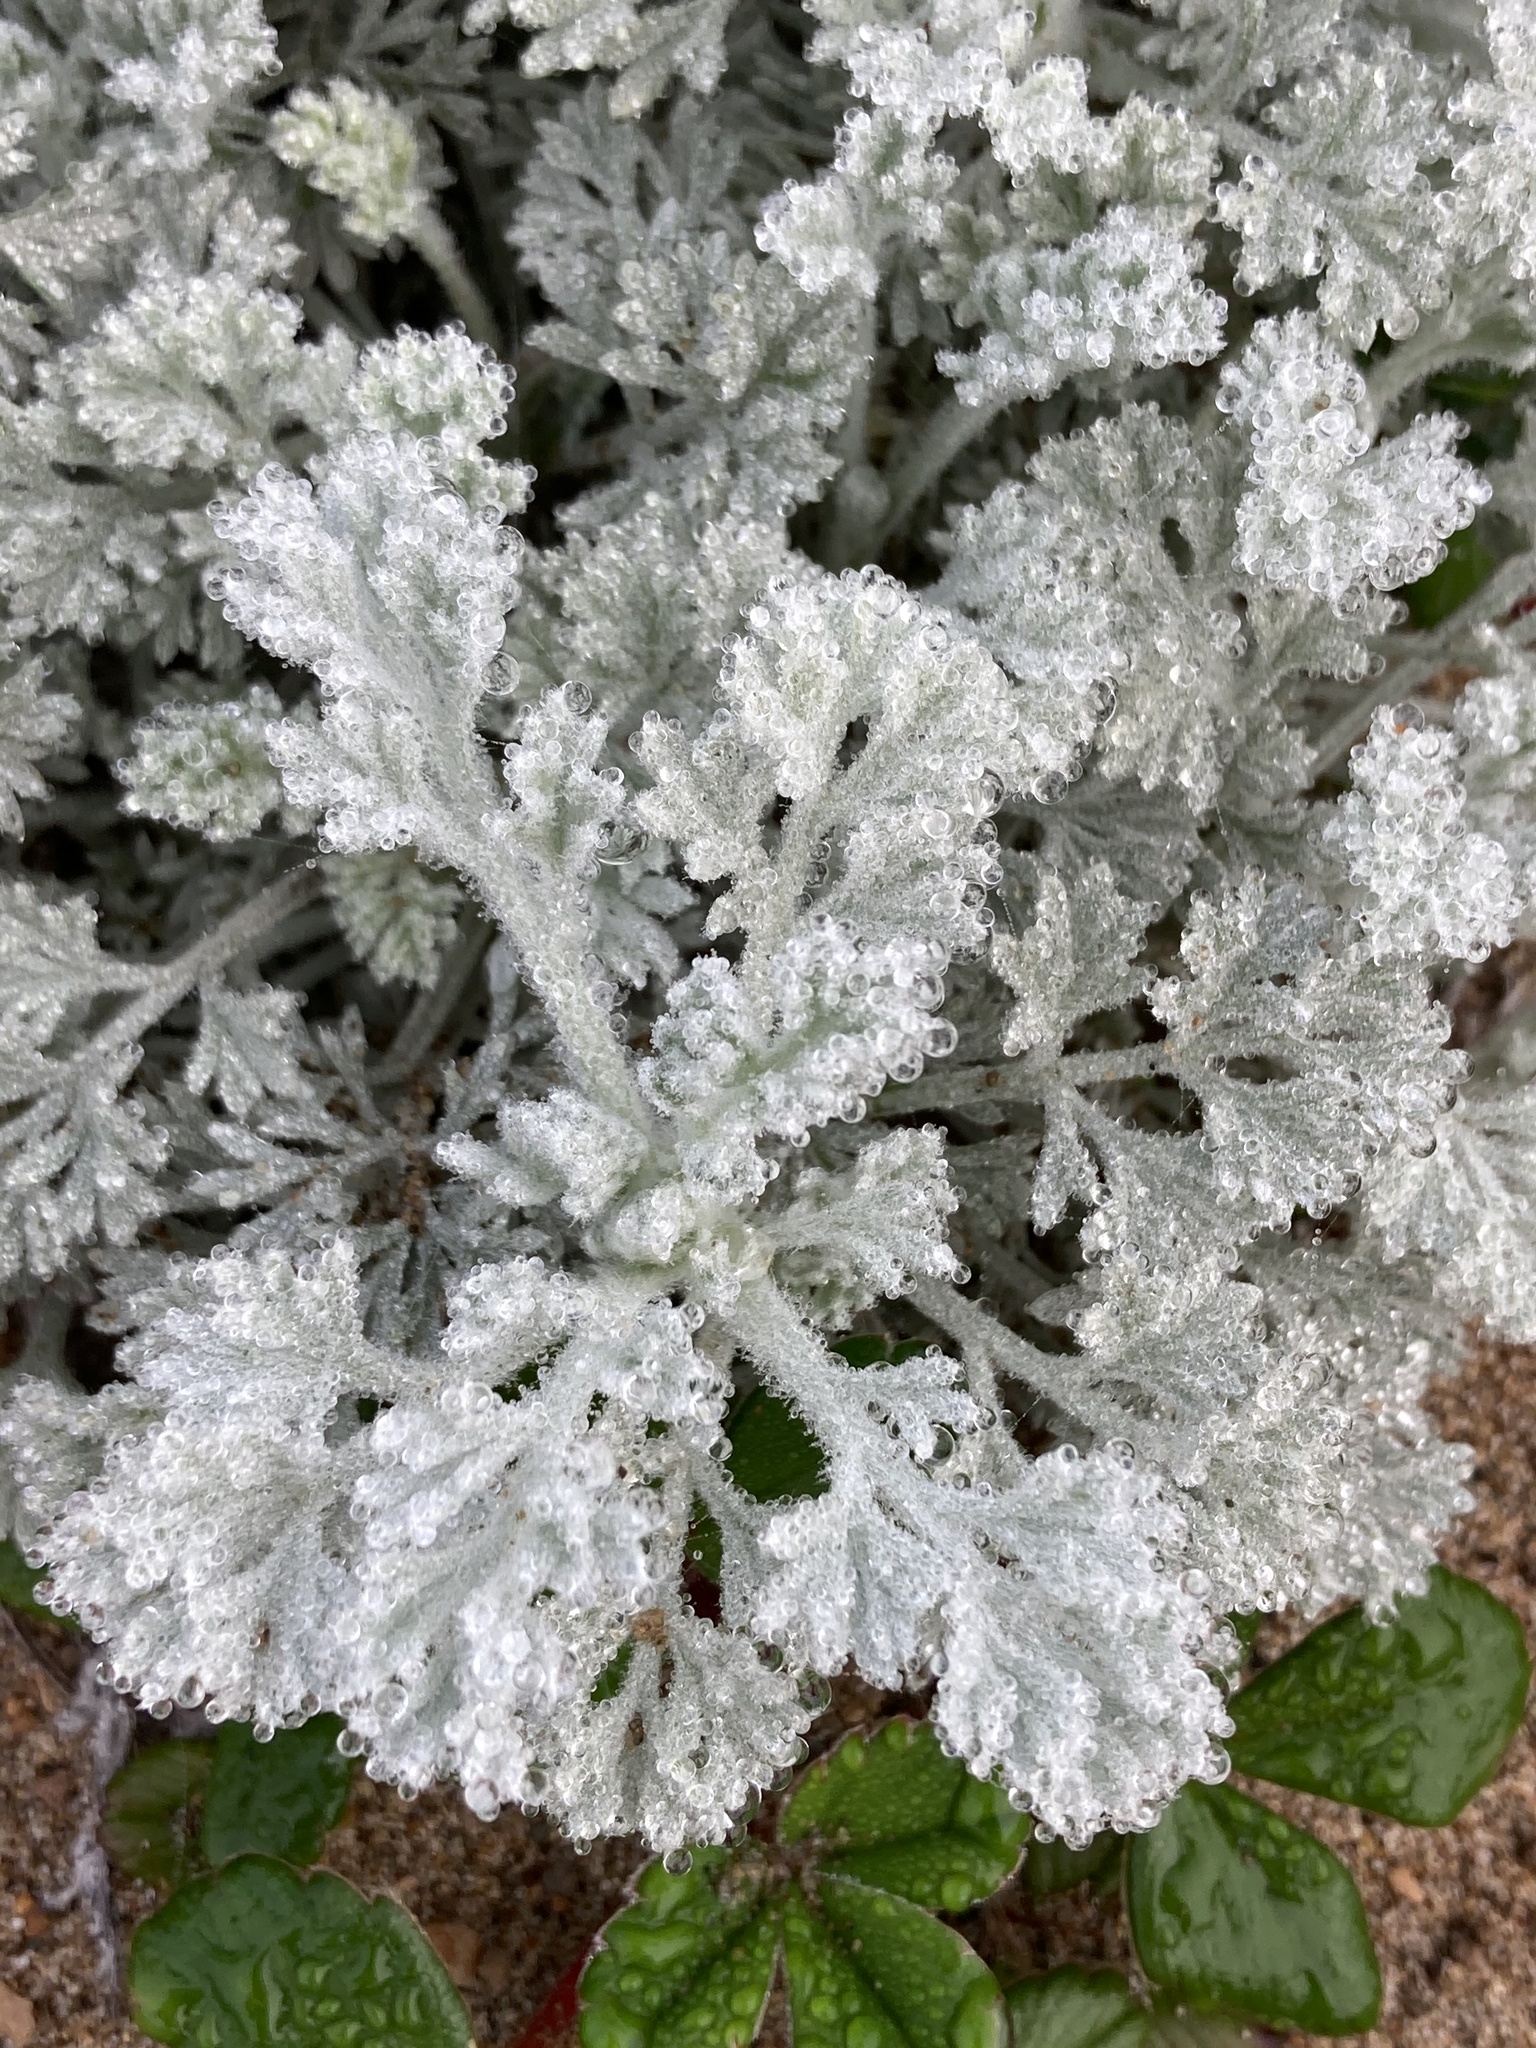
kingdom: Plantae
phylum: Tracheophyta
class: Magnoliopsida
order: Asterales
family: Asteraceae
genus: Artemisia
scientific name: Artemisia pycnocephala
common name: Coastal sagewort
